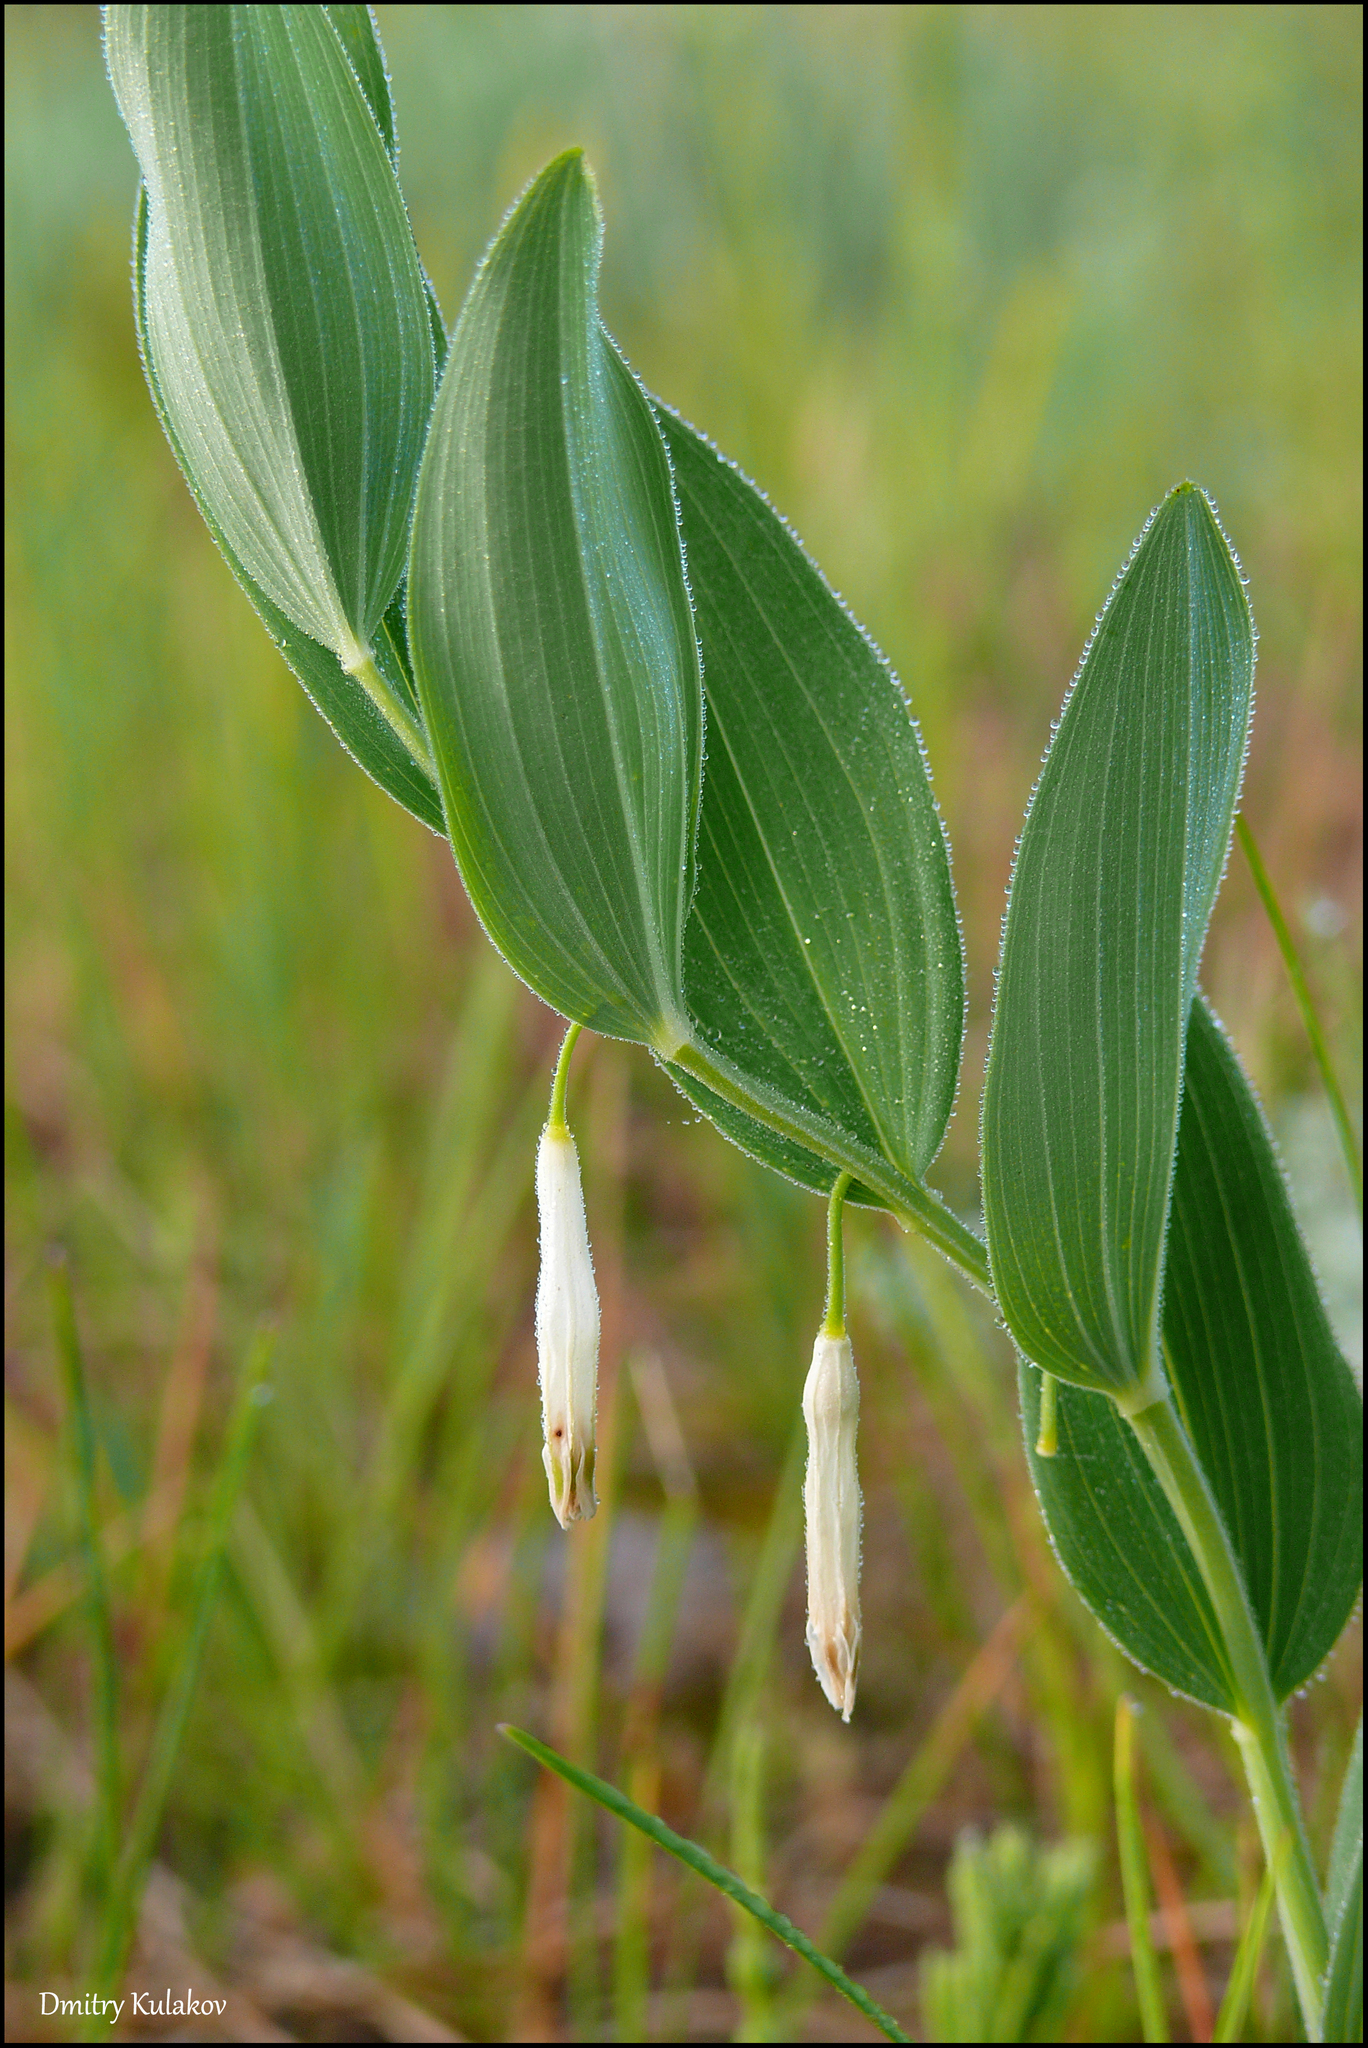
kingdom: Plantae
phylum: Tracheophyta
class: Liliopsida
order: Asparagales
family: Asparagaceae
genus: Polygonatum
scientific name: Polygonatum odoratum
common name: Angular solomon's-seal
